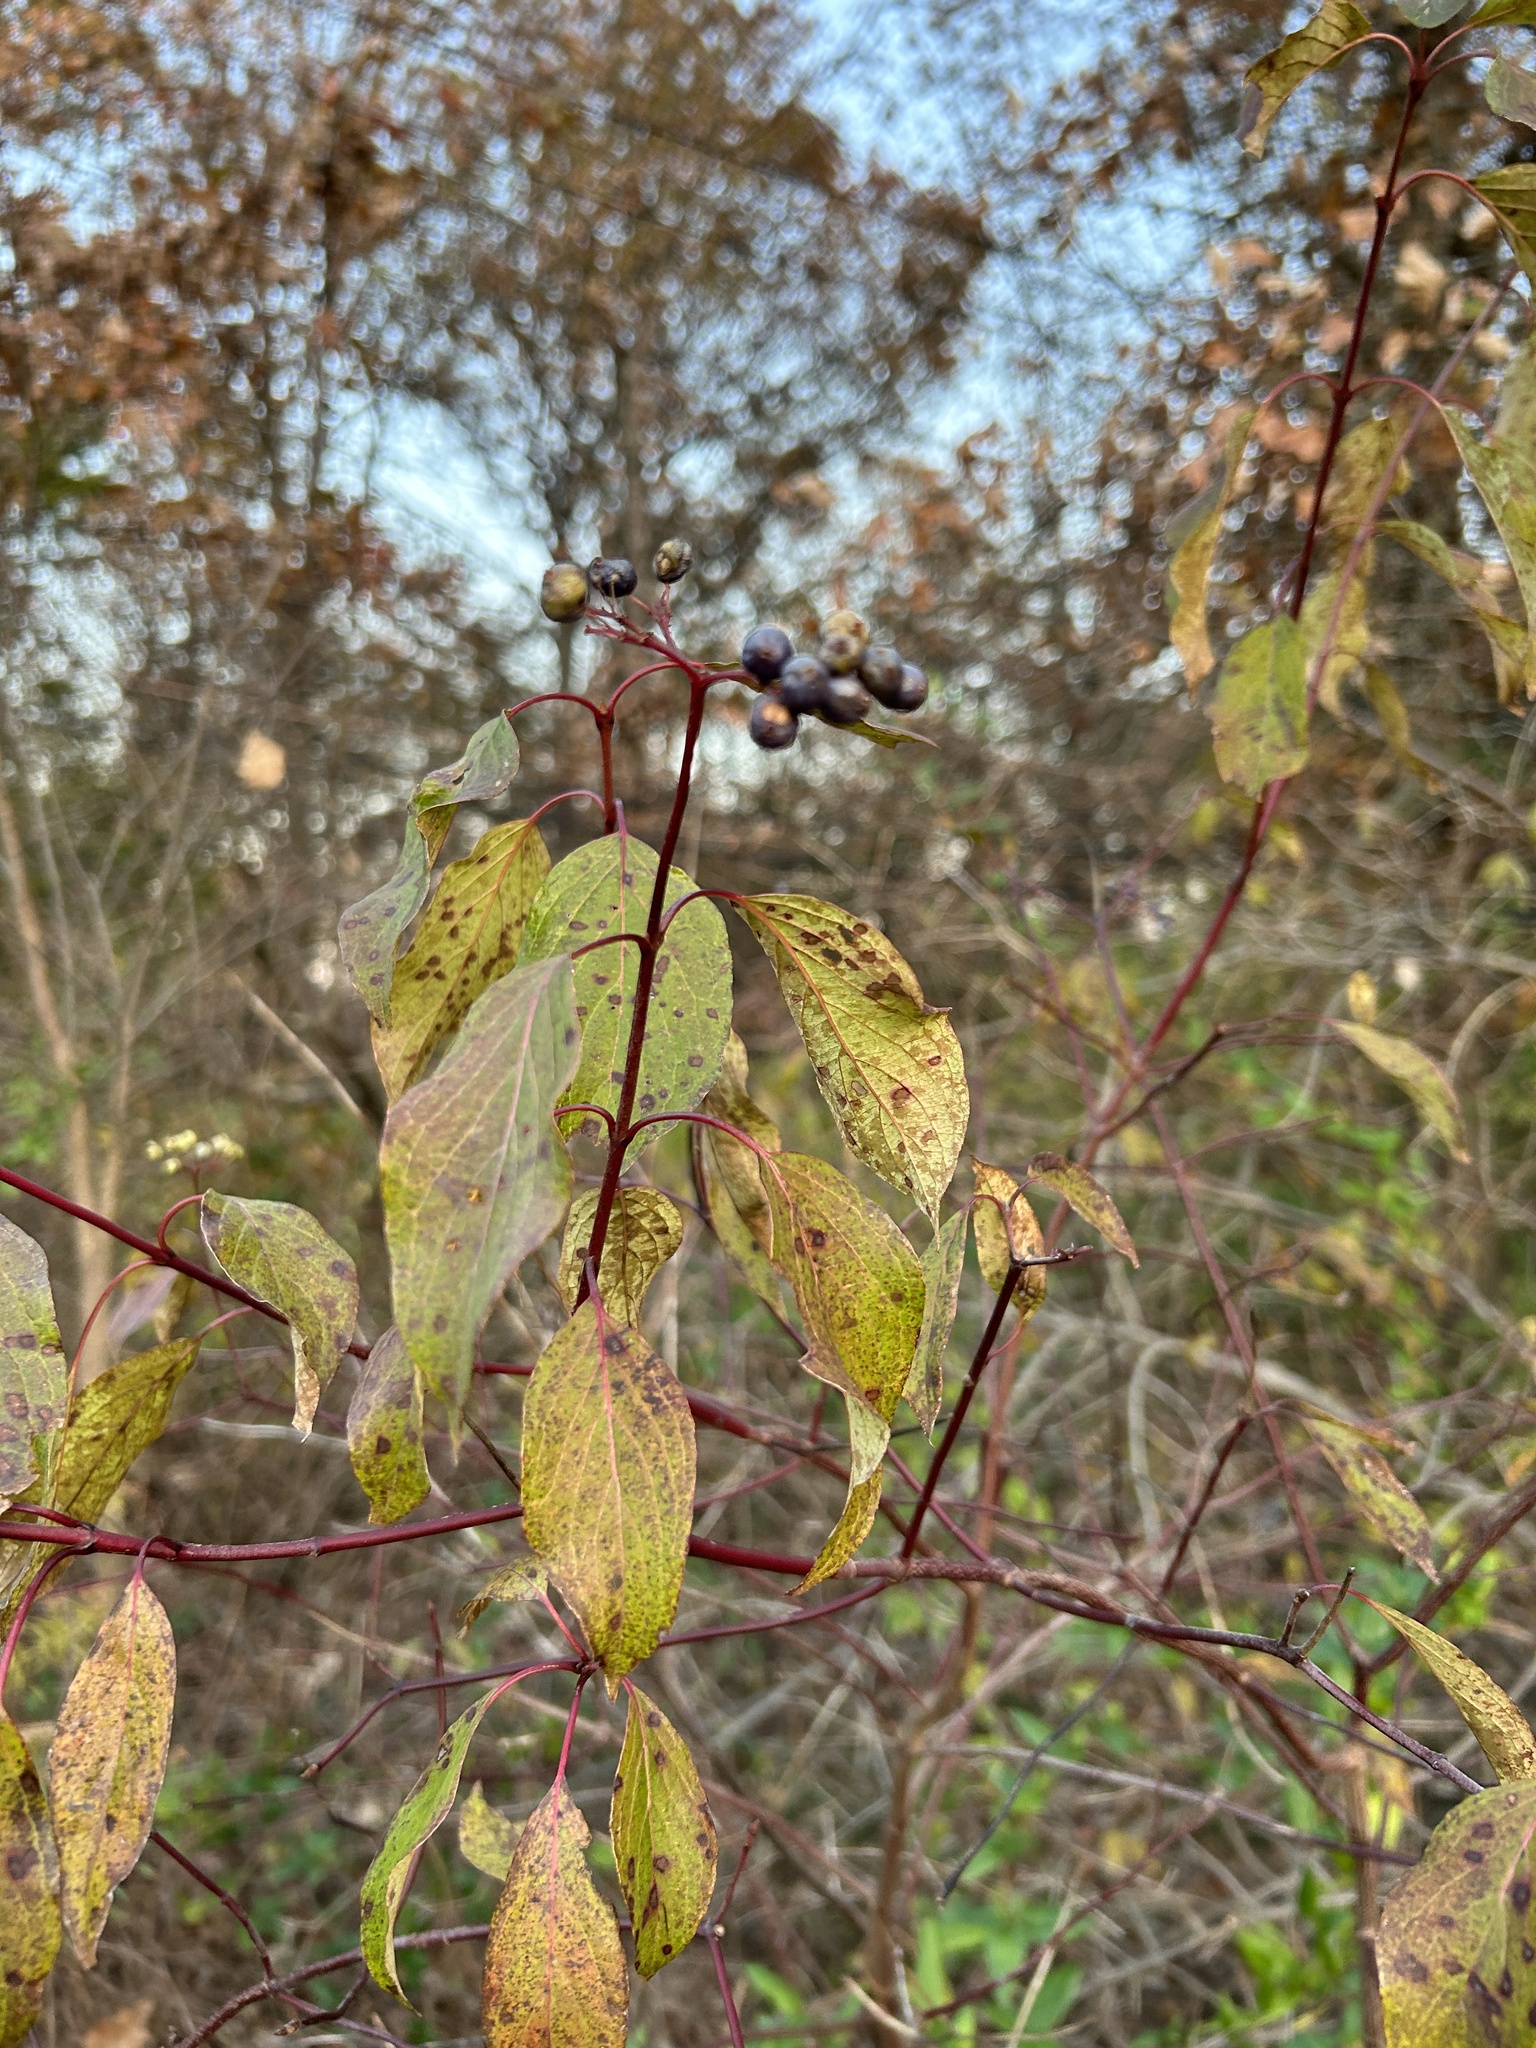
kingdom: Plantae
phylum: Tracheophyta
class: Magnoliopsida
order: Cornales
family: Cornaceae
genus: Cornus
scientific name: Cornus amomum
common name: Silky dogwood
